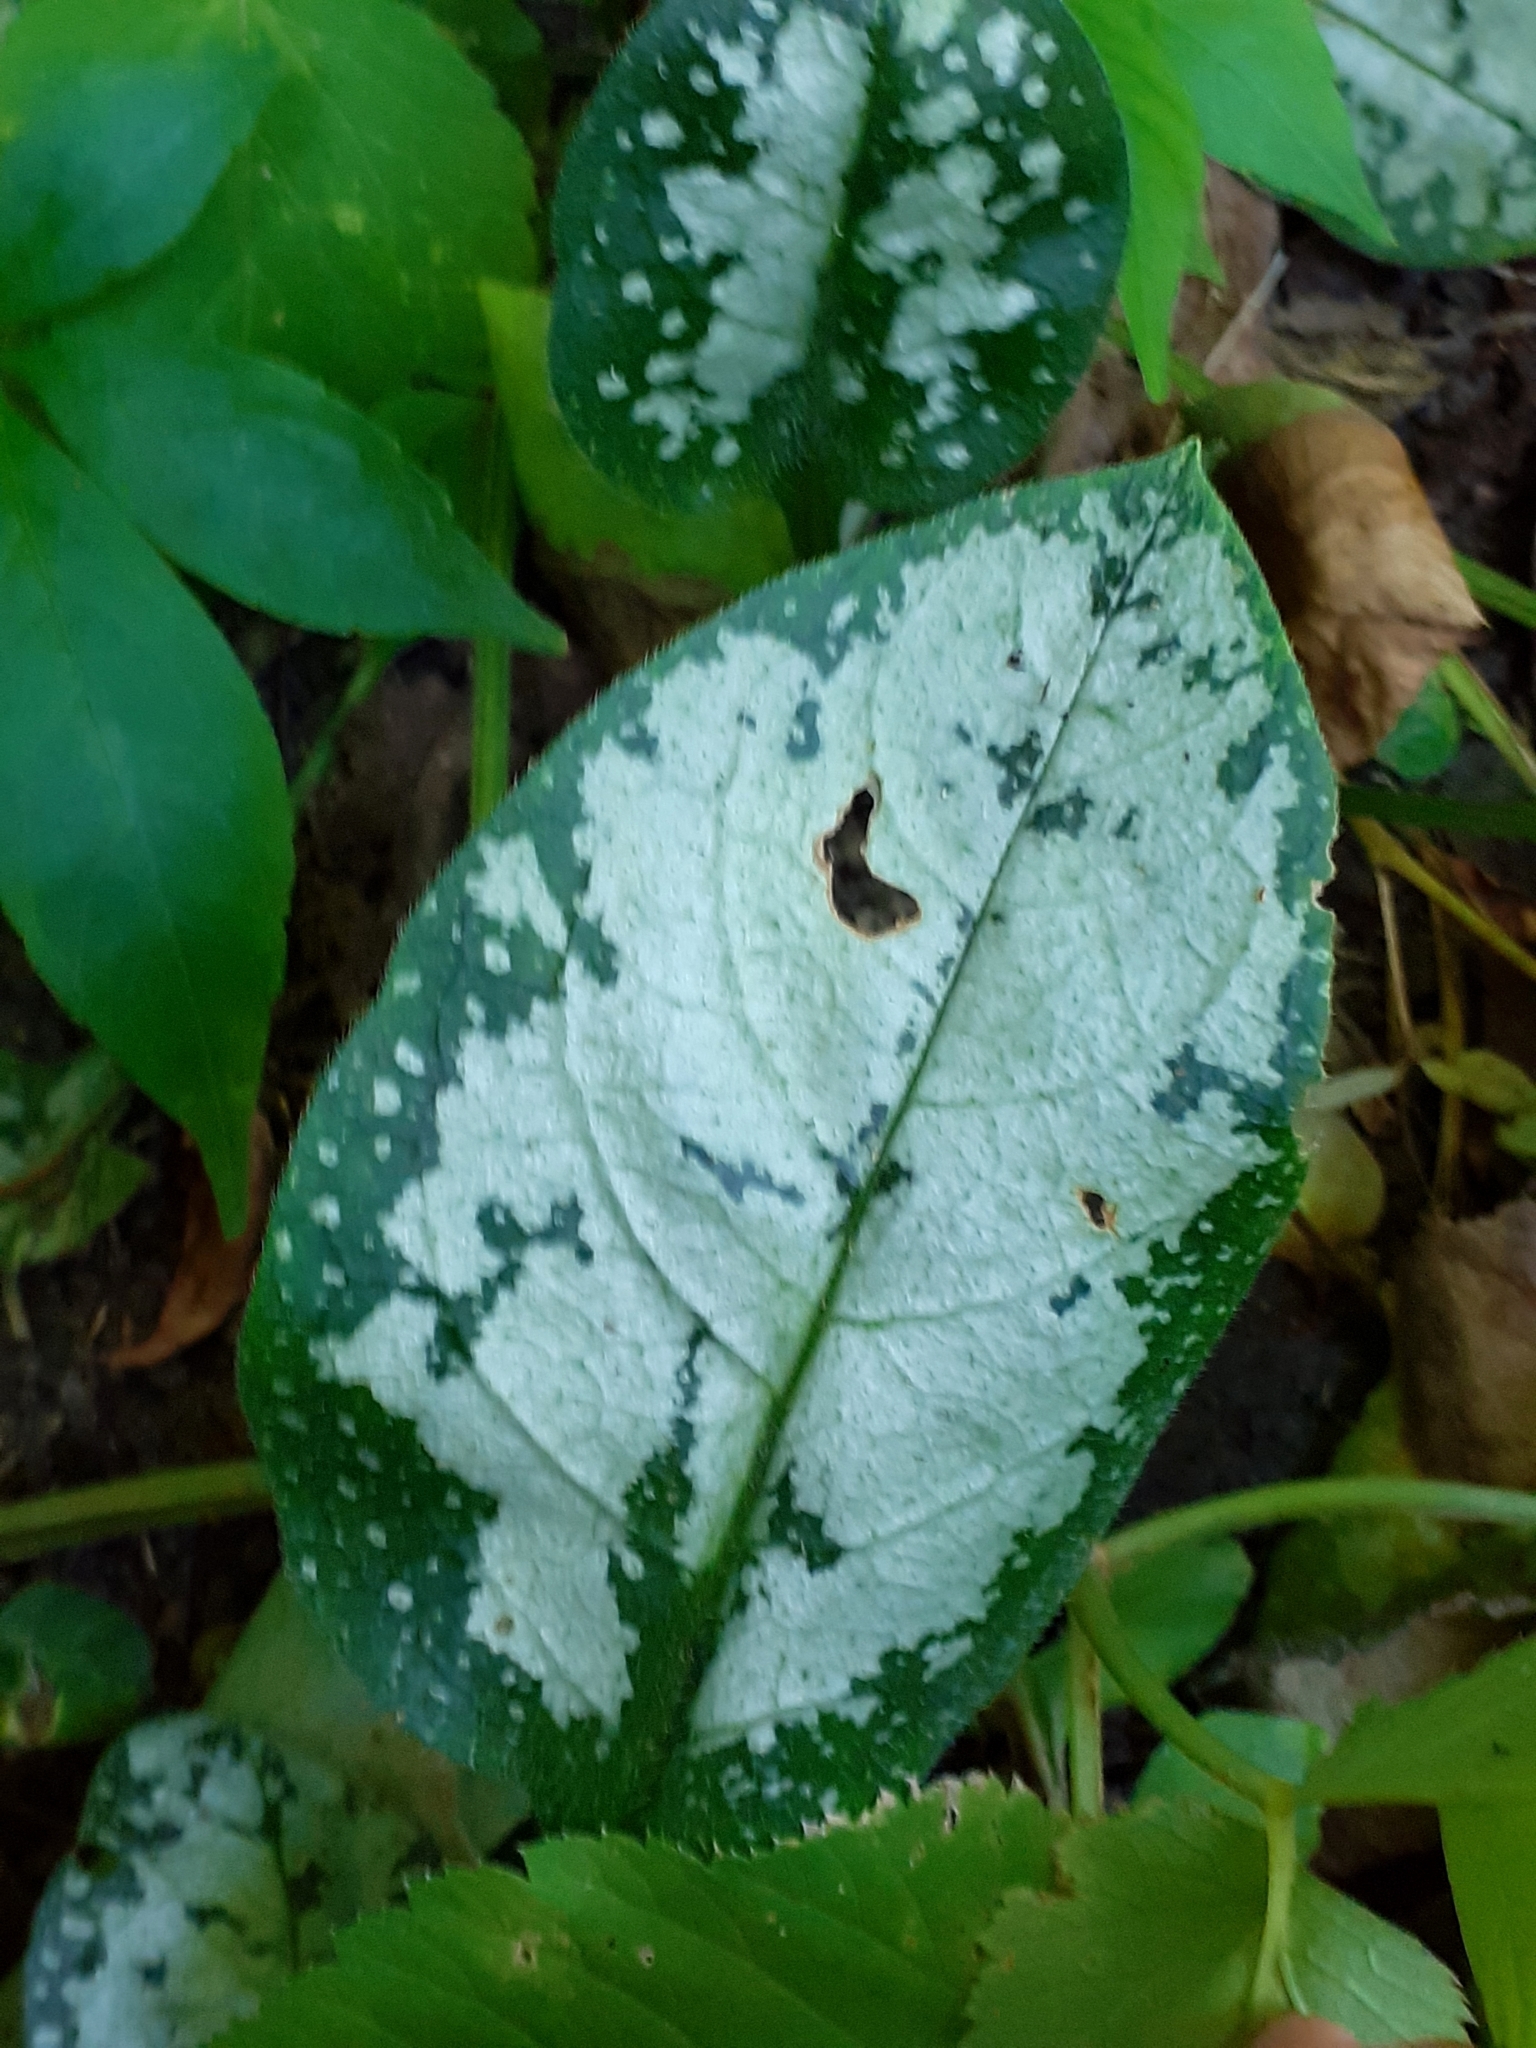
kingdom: Plantae
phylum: Tracheophyta
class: Magnoliopsida
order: Boraginales
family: Boraginaceae
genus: Pulmonaria
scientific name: Pulmonaria officinalis
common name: Lungwort
